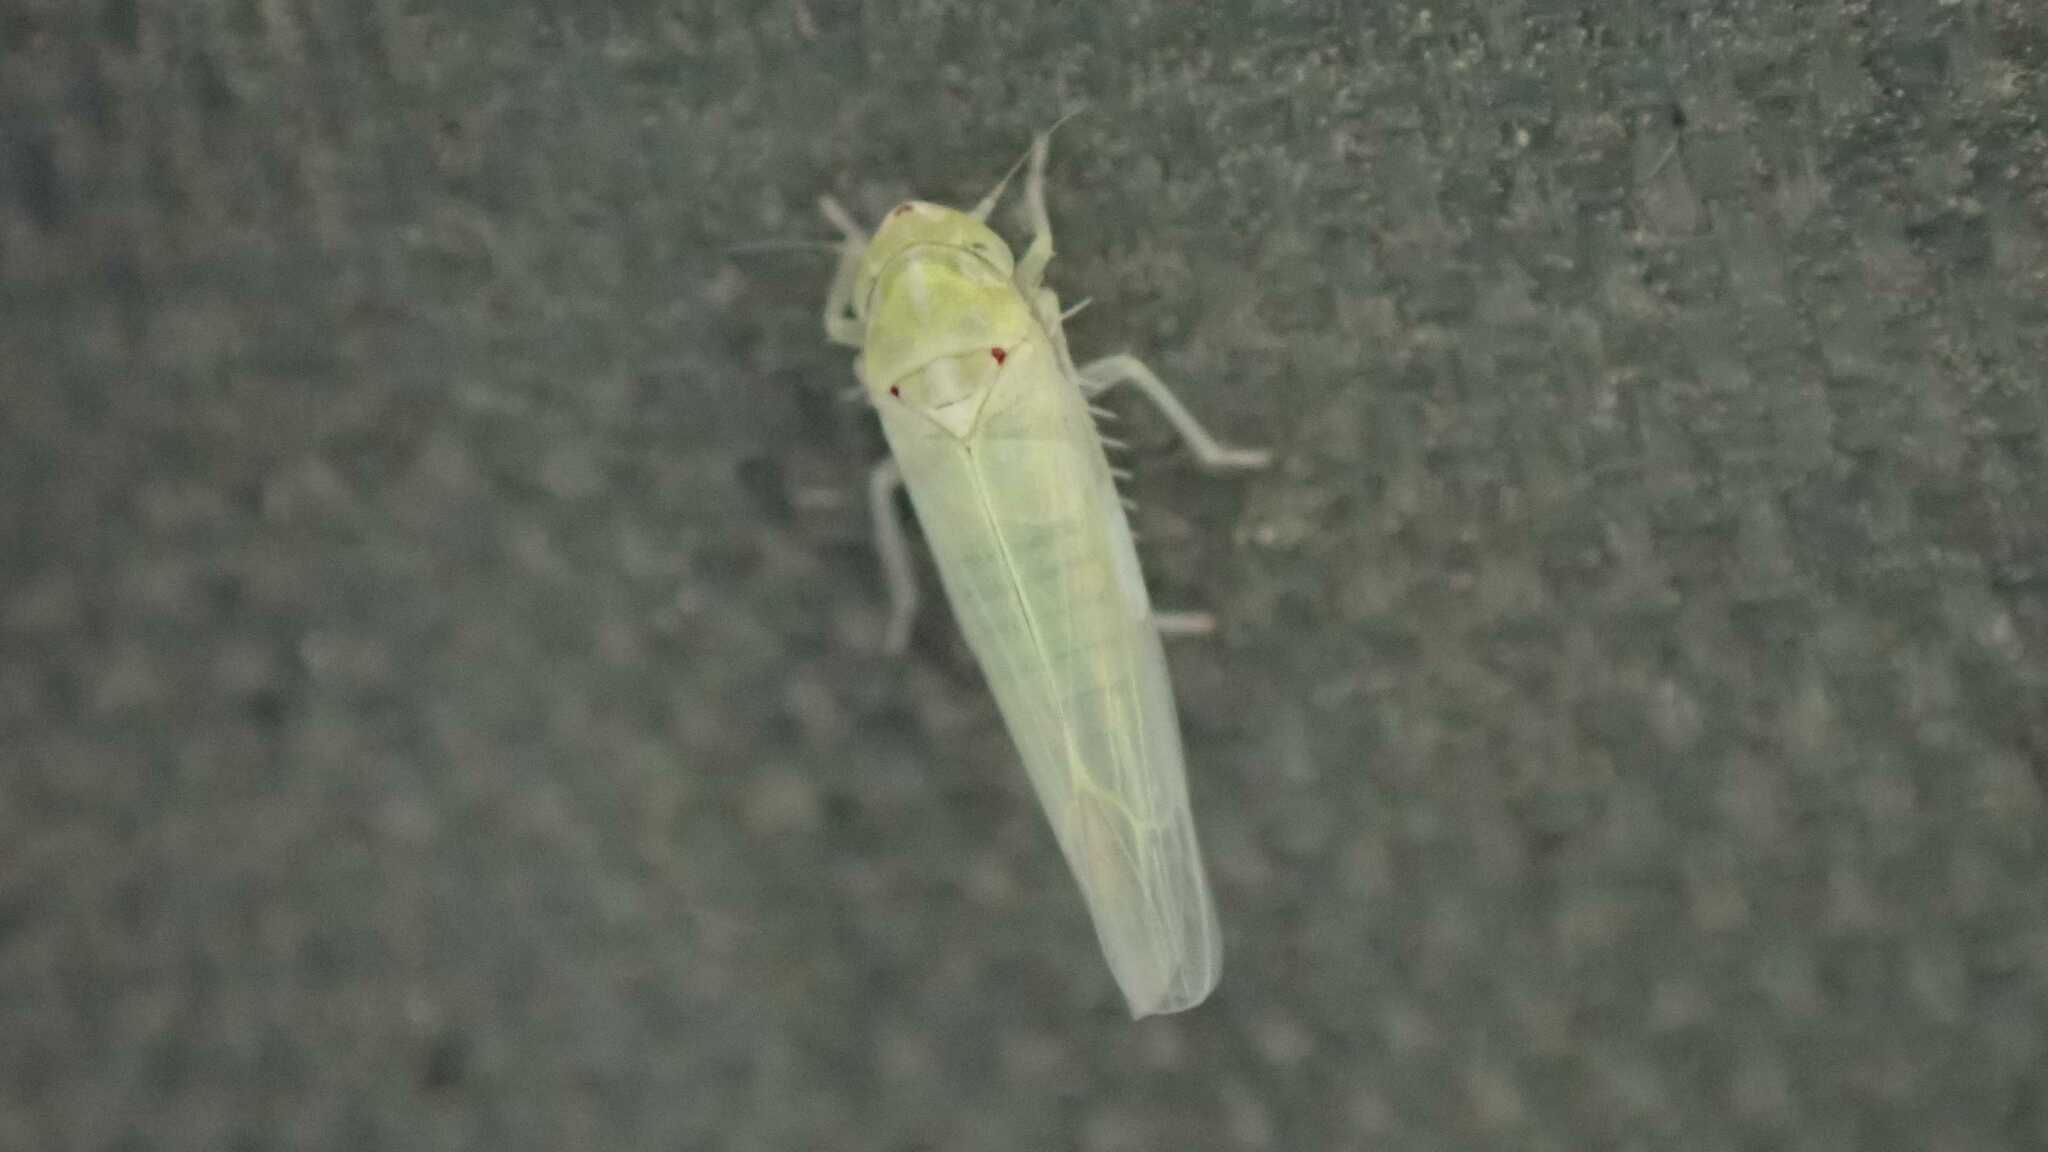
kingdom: Animalia
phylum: Arthropoda
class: Insecta
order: Hemiptera
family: Cicadellidae
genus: Zygina
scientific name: Zygina nivea
